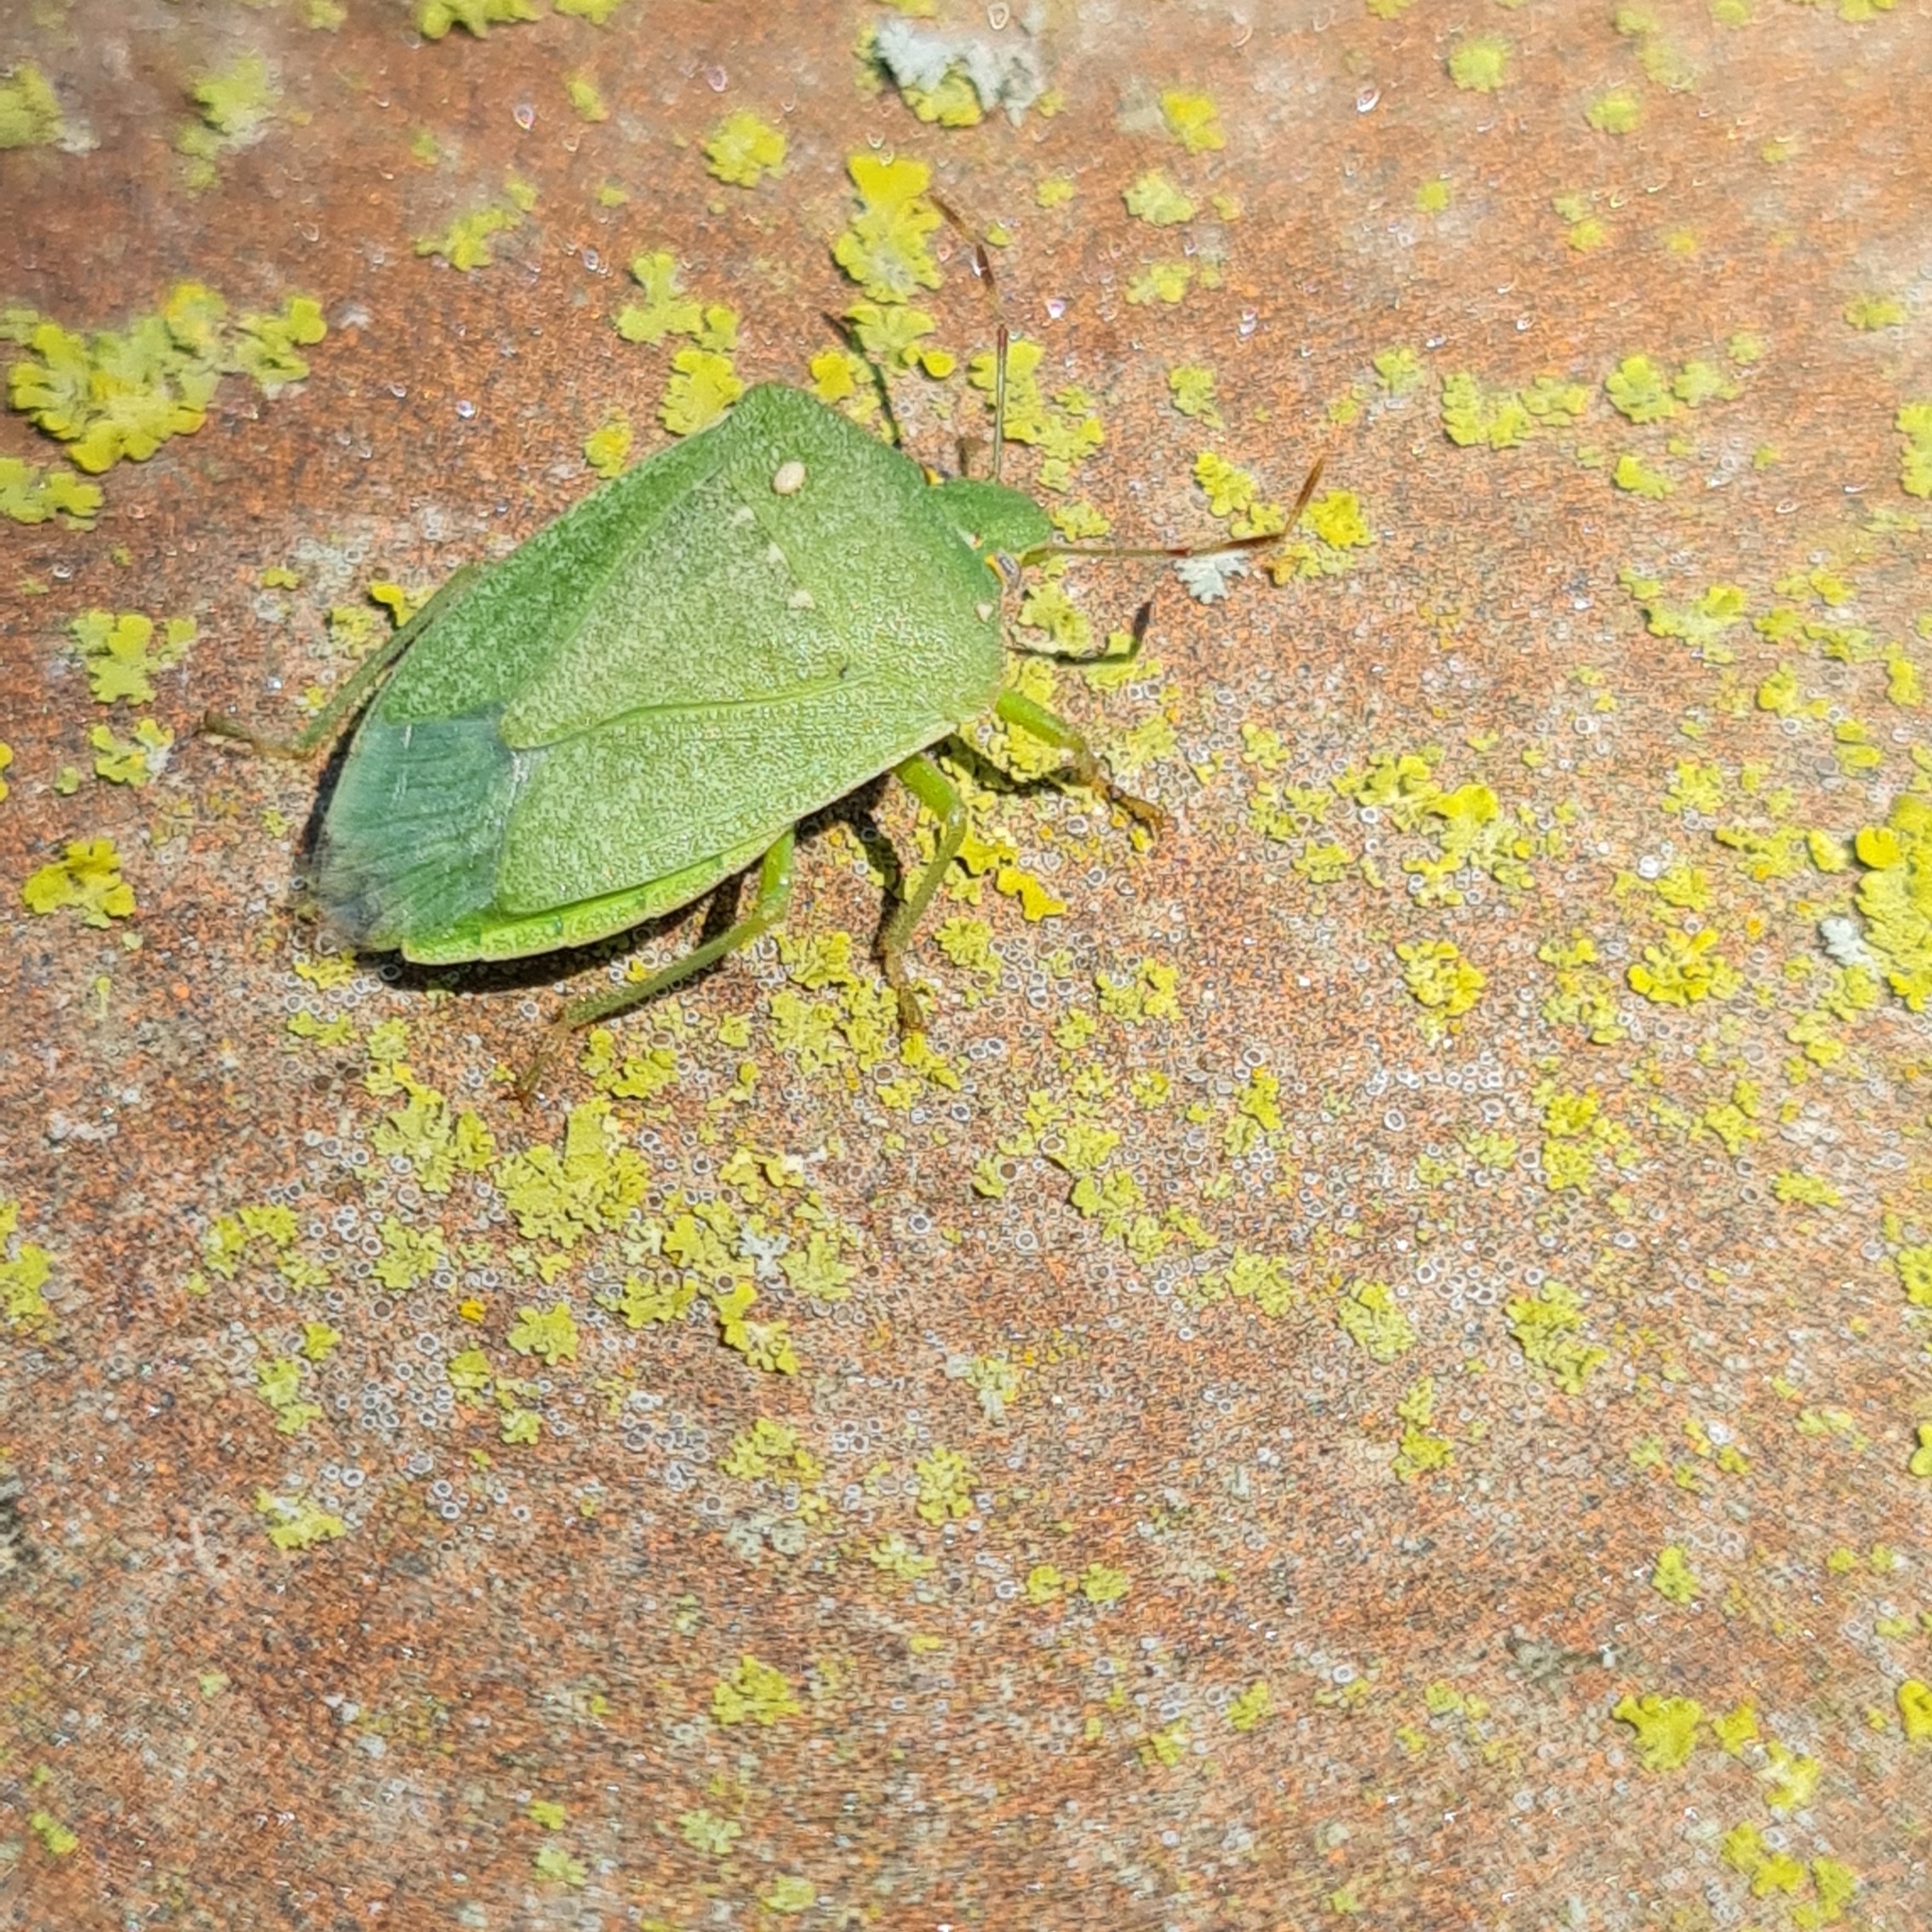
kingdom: Animalia
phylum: Arthropoda
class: Insecta
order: Hemiptera
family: Pentatomidae
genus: Nezara
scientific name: Nezara viridula
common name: Southern green stink bug
